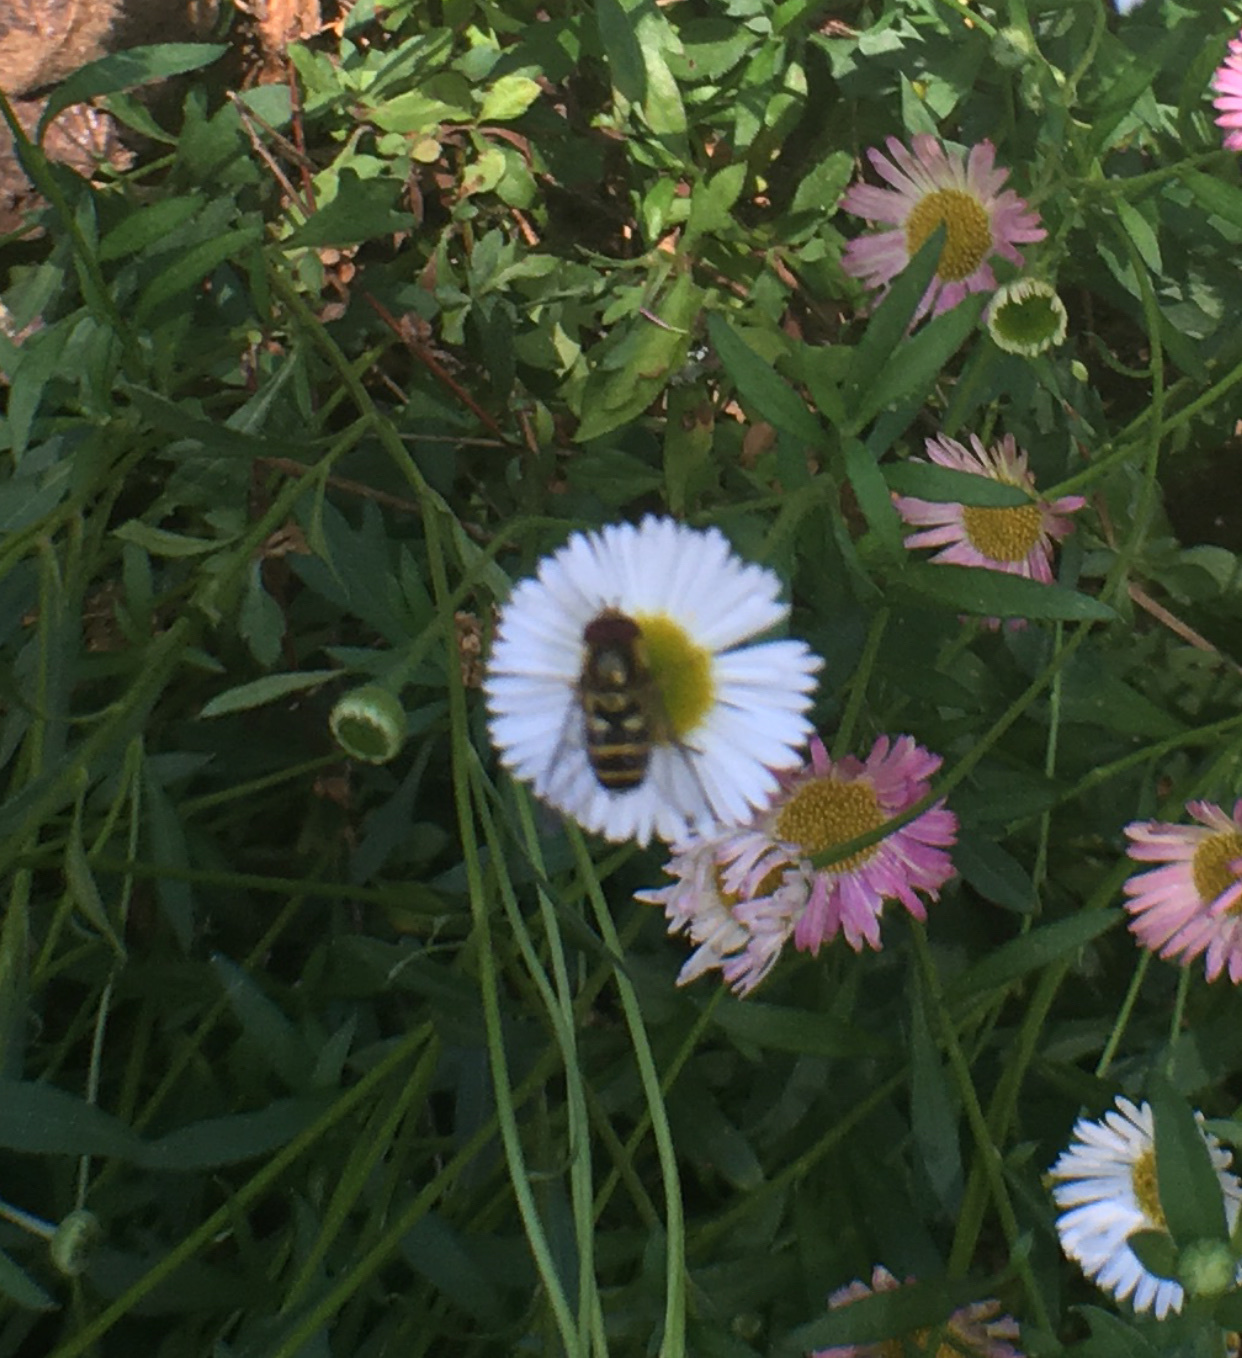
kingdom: Animalia
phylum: Arthropoda
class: Insecta
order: Diptera
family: Syrphidae
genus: Syrphus
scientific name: Syrphus
